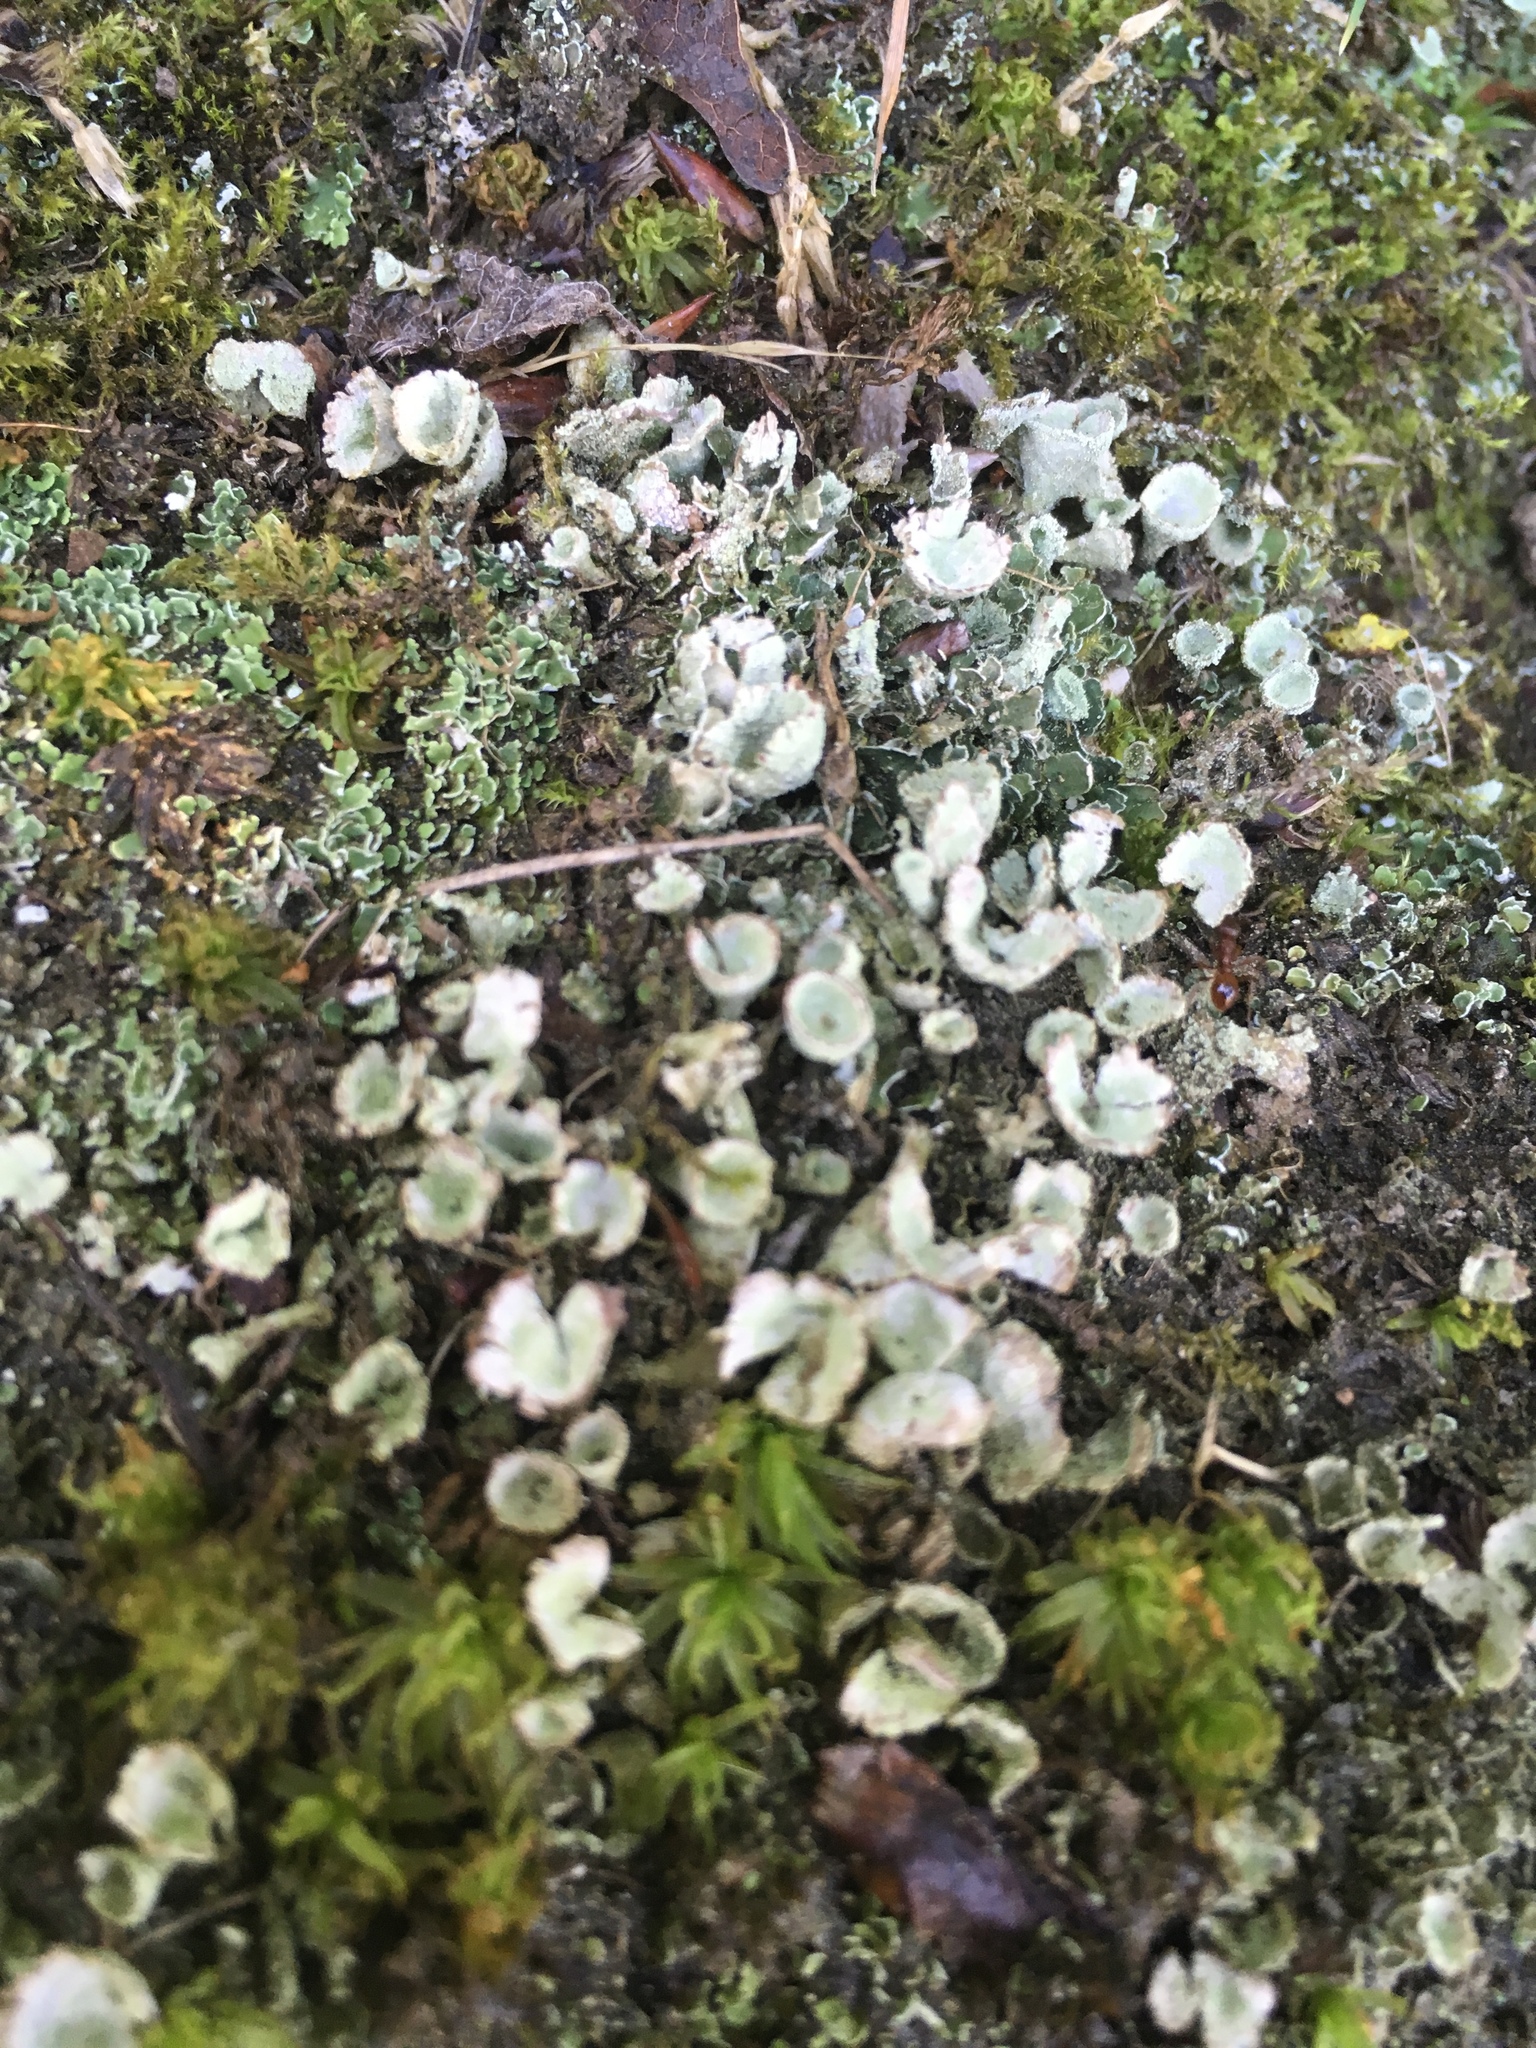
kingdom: Fungi
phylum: Ascomycota
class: Lecanoromycetes
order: Lecanorales
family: Cladoniaceae
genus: Cladonia
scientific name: Cladonia
